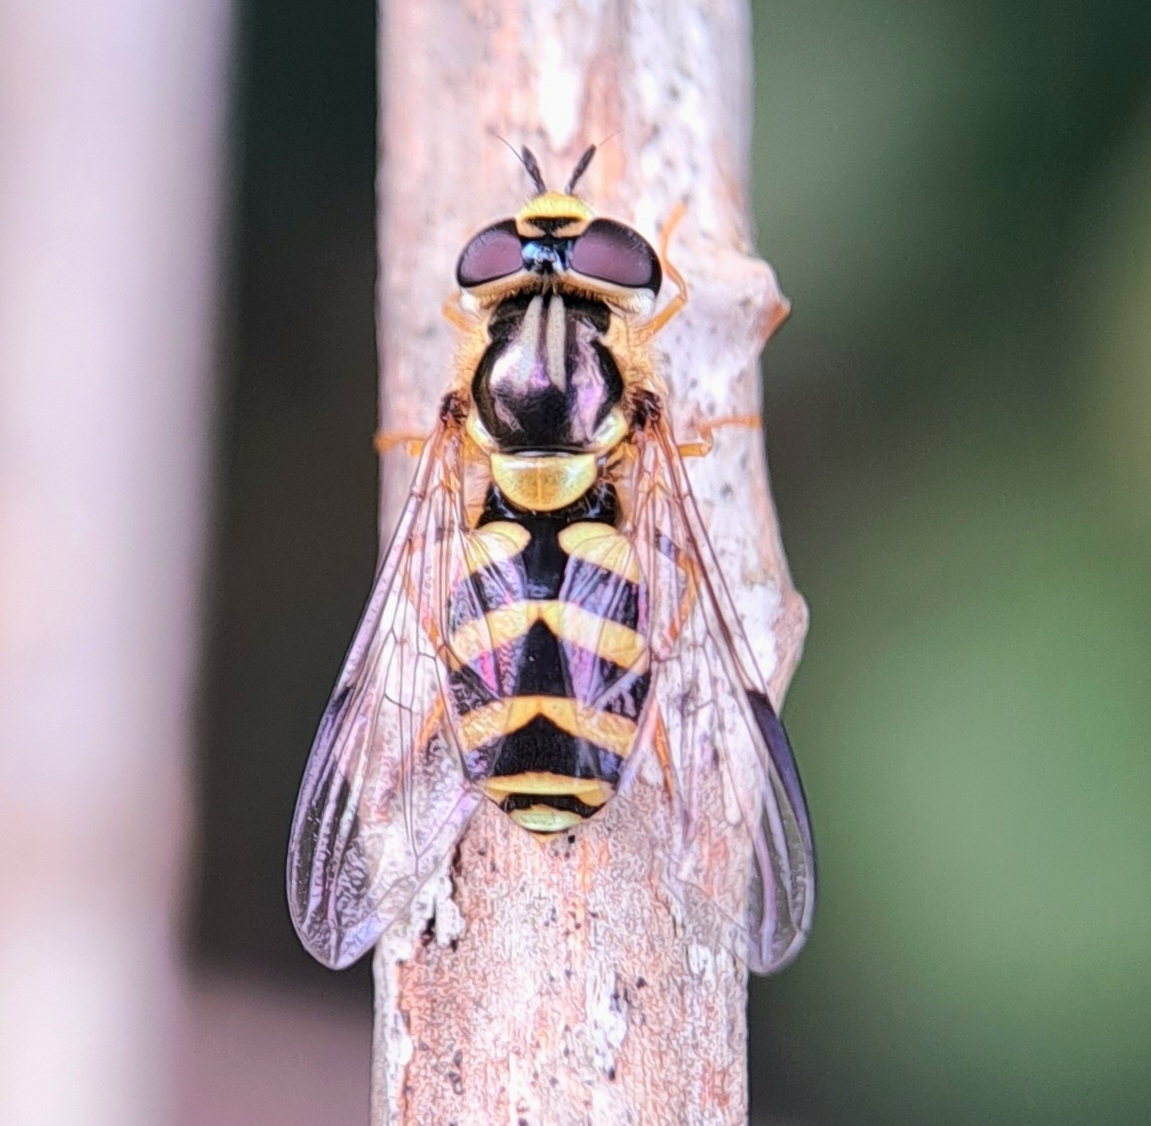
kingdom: Animalia
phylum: Arthropoda
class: Insecta
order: Diptera
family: Syrphidae
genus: Dasysyrphus
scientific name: Dasysyrphus albostriatus
